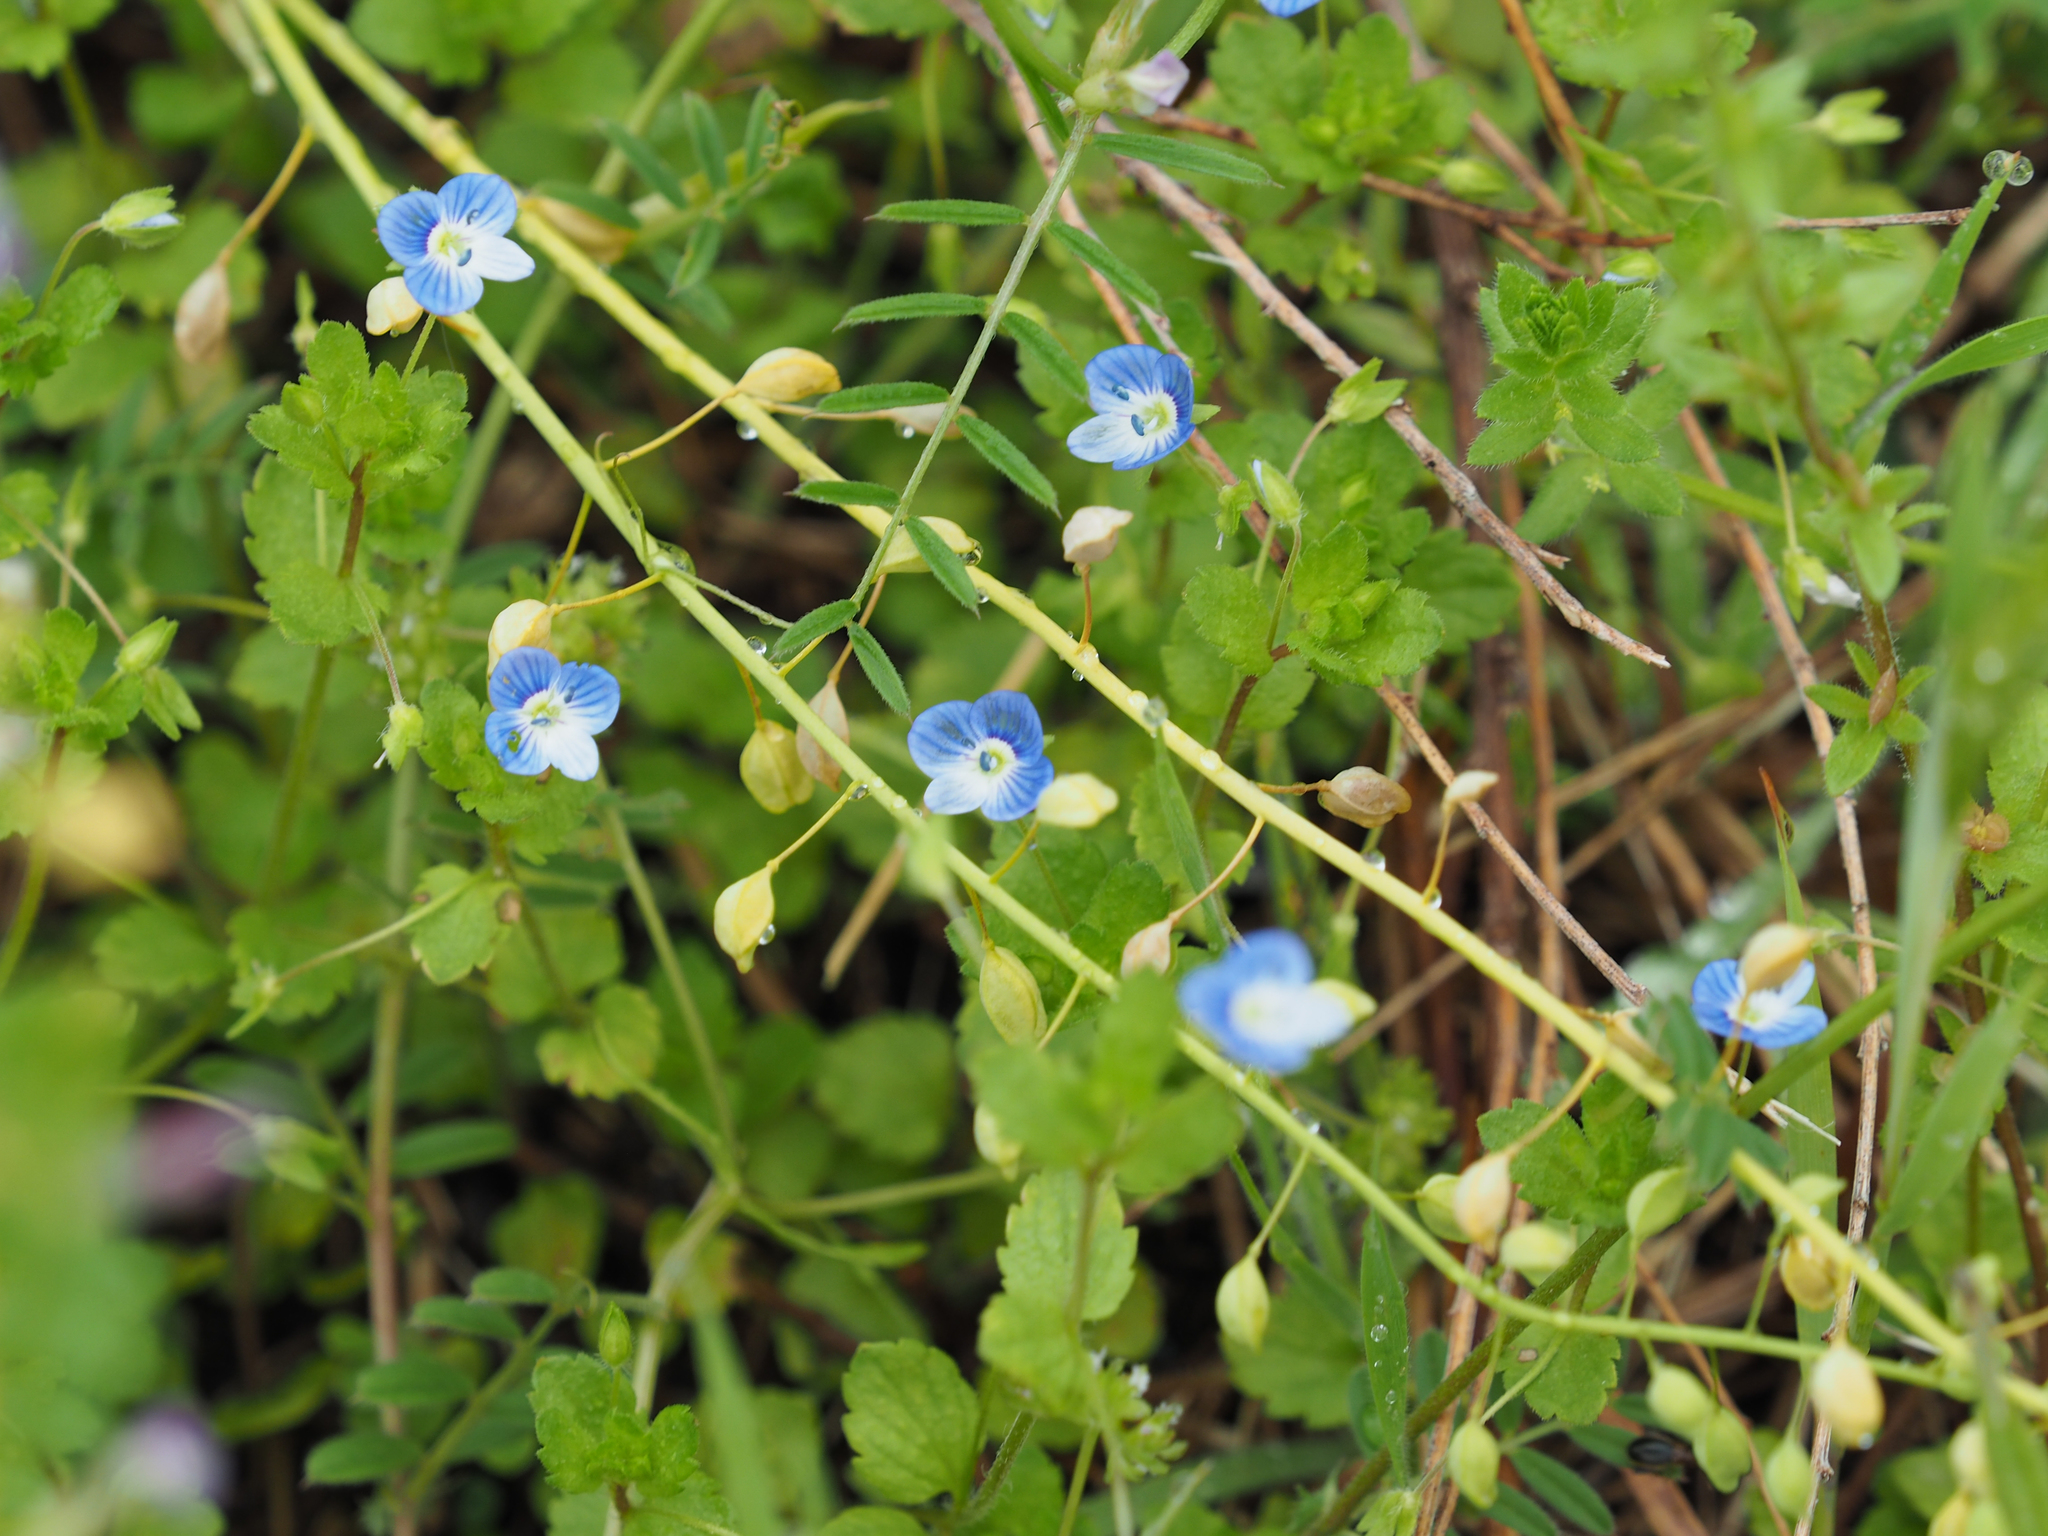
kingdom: Plantae
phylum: Tracheophyta
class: Magnoliopsida
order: Lamiales
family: Plantaginaceae
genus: Veronica
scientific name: Veronica persica
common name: Common field-speedwell
